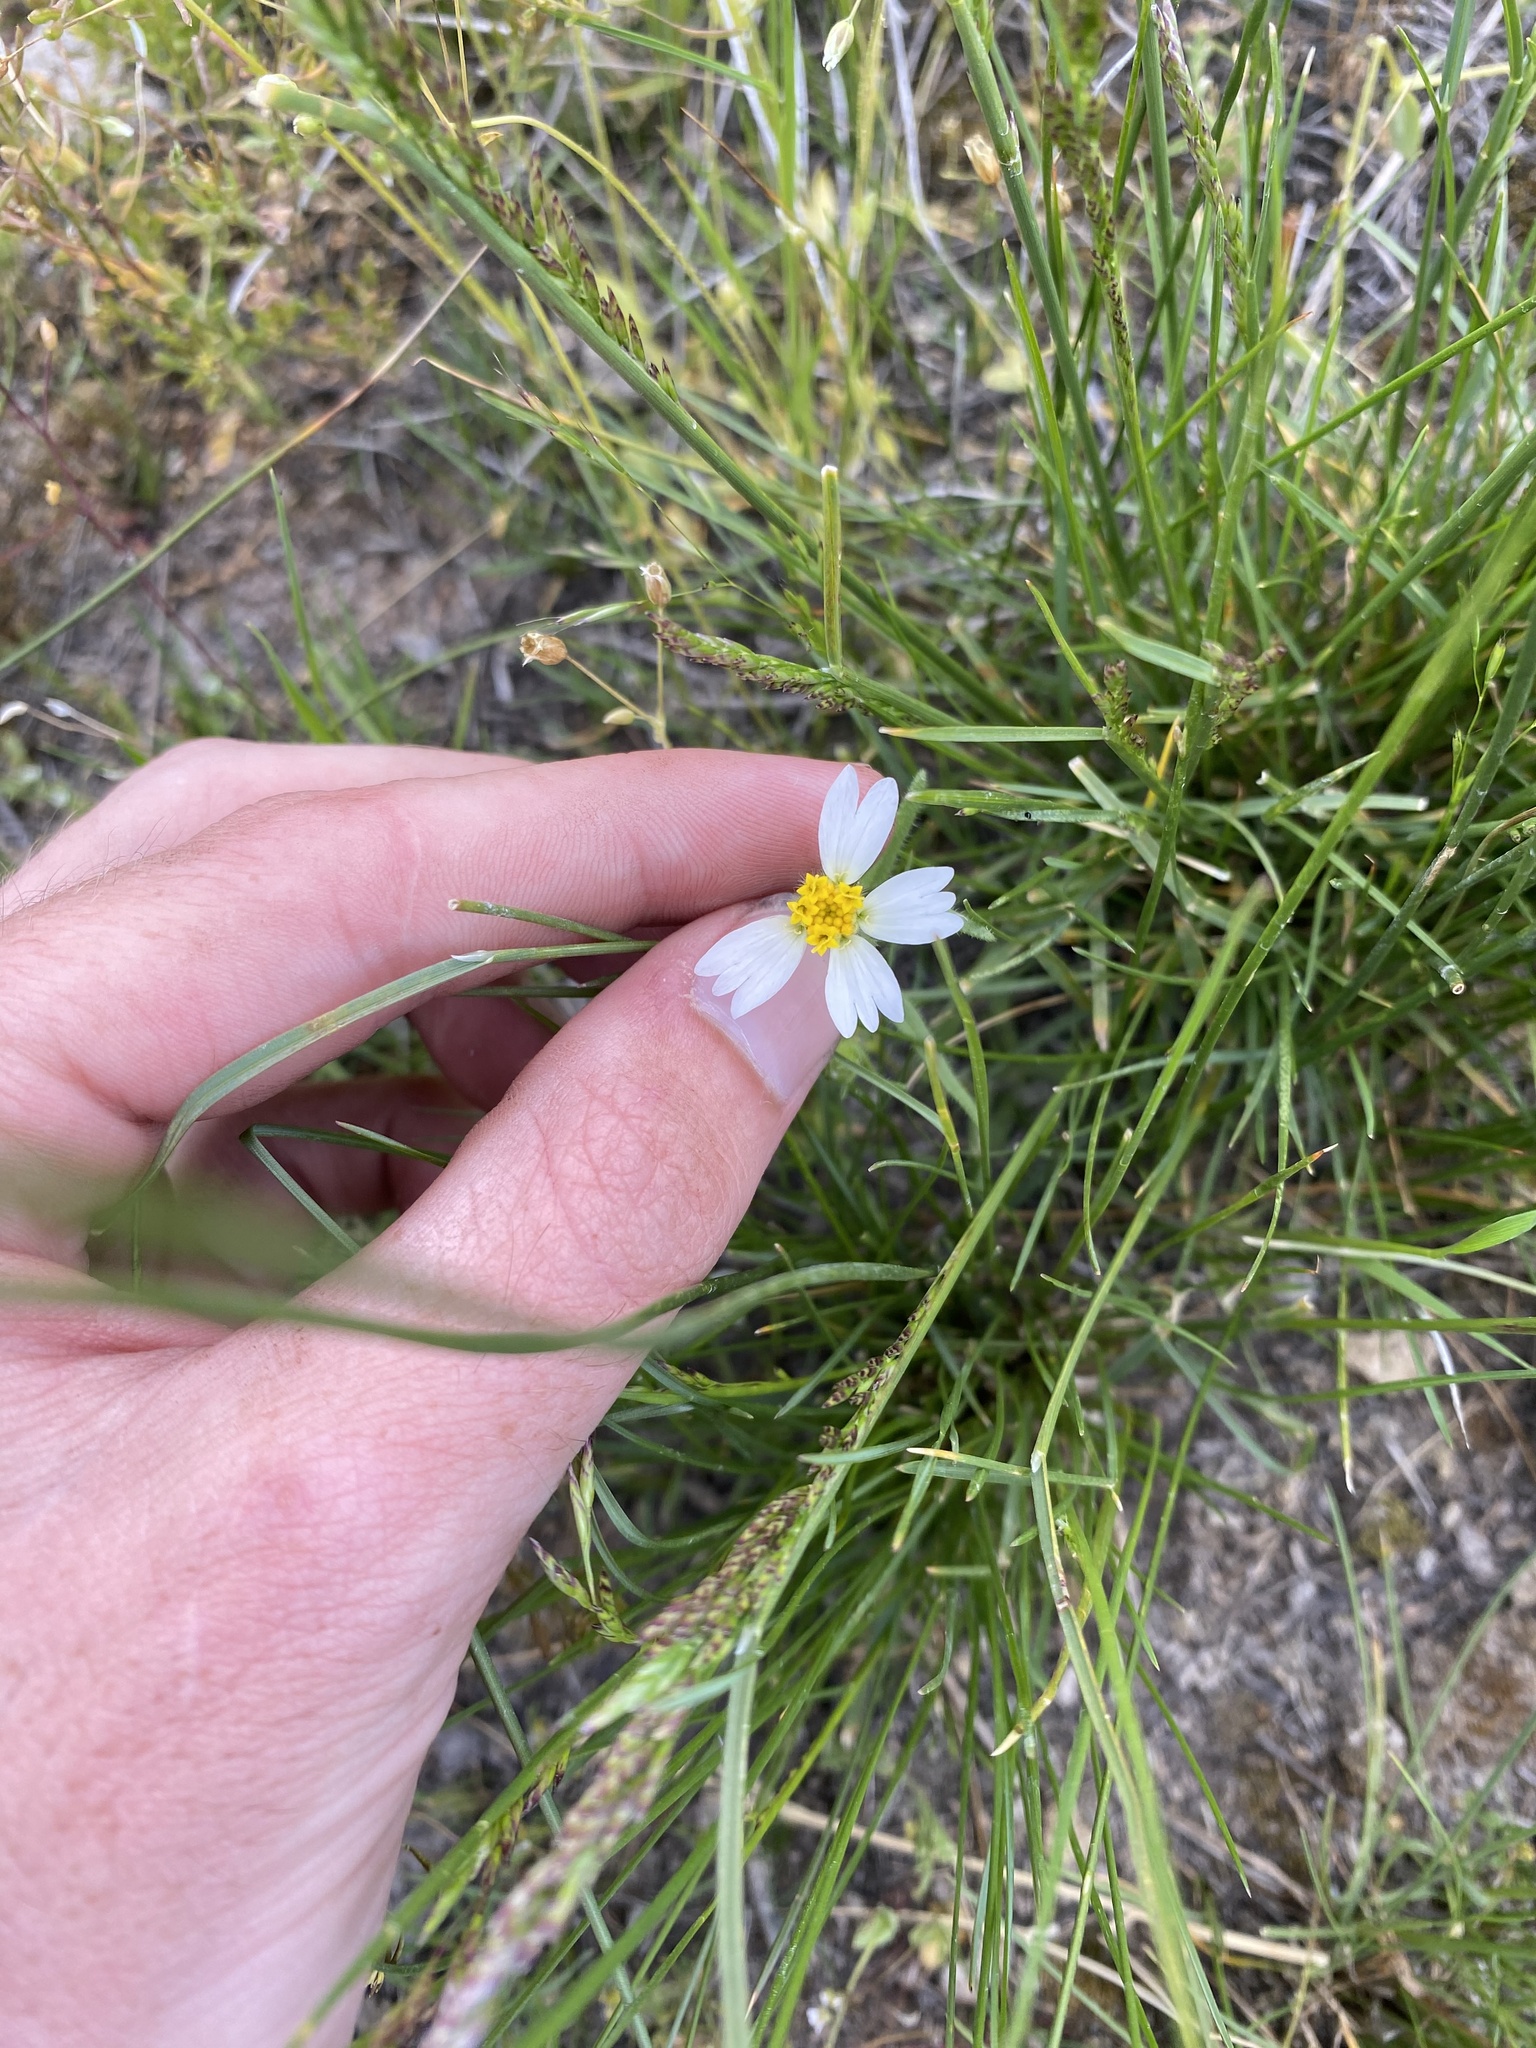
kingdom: Plantae
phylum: Tracheophyta
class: Magnoliopsida
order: Asterales
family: Asteraceae
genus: Layia
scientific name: Layia glandulosa
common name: White layia
